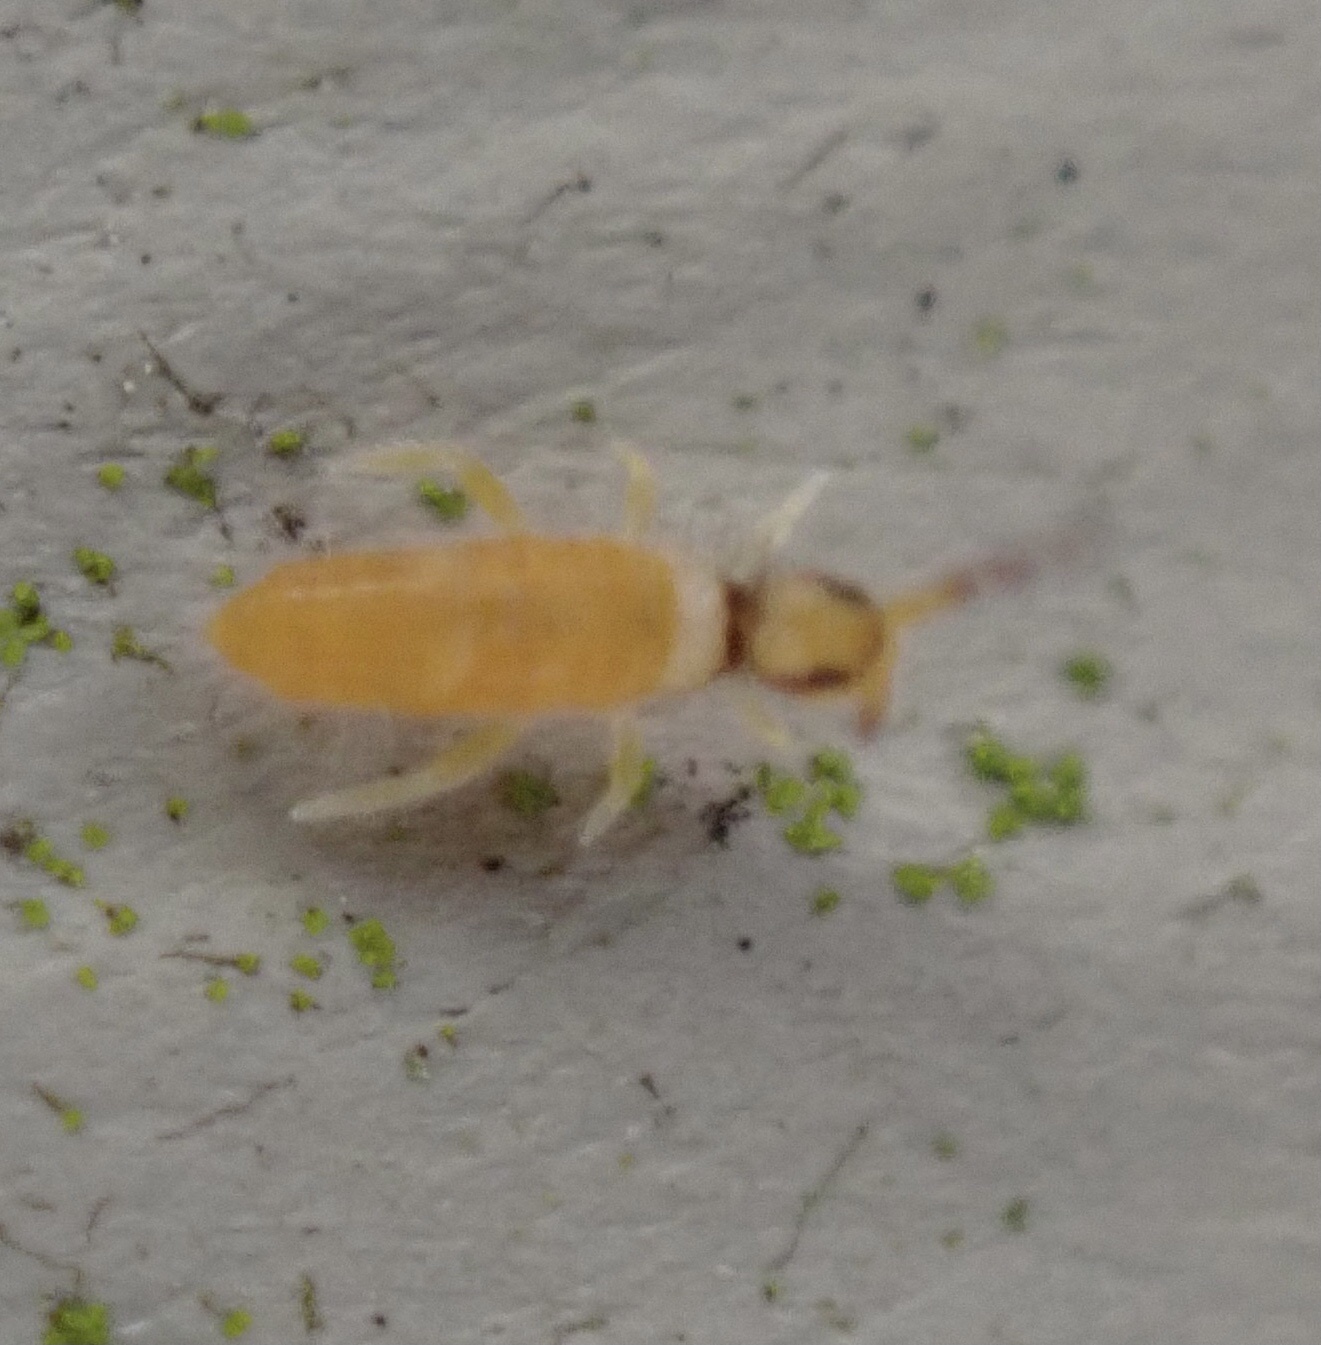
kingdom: Animalia
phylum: Arthropoda
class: Collembola
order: Entomobryomorpha
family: Entomobryidae
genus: Entomobrya
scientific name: Entomobrya atrocincta
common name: Springtail
